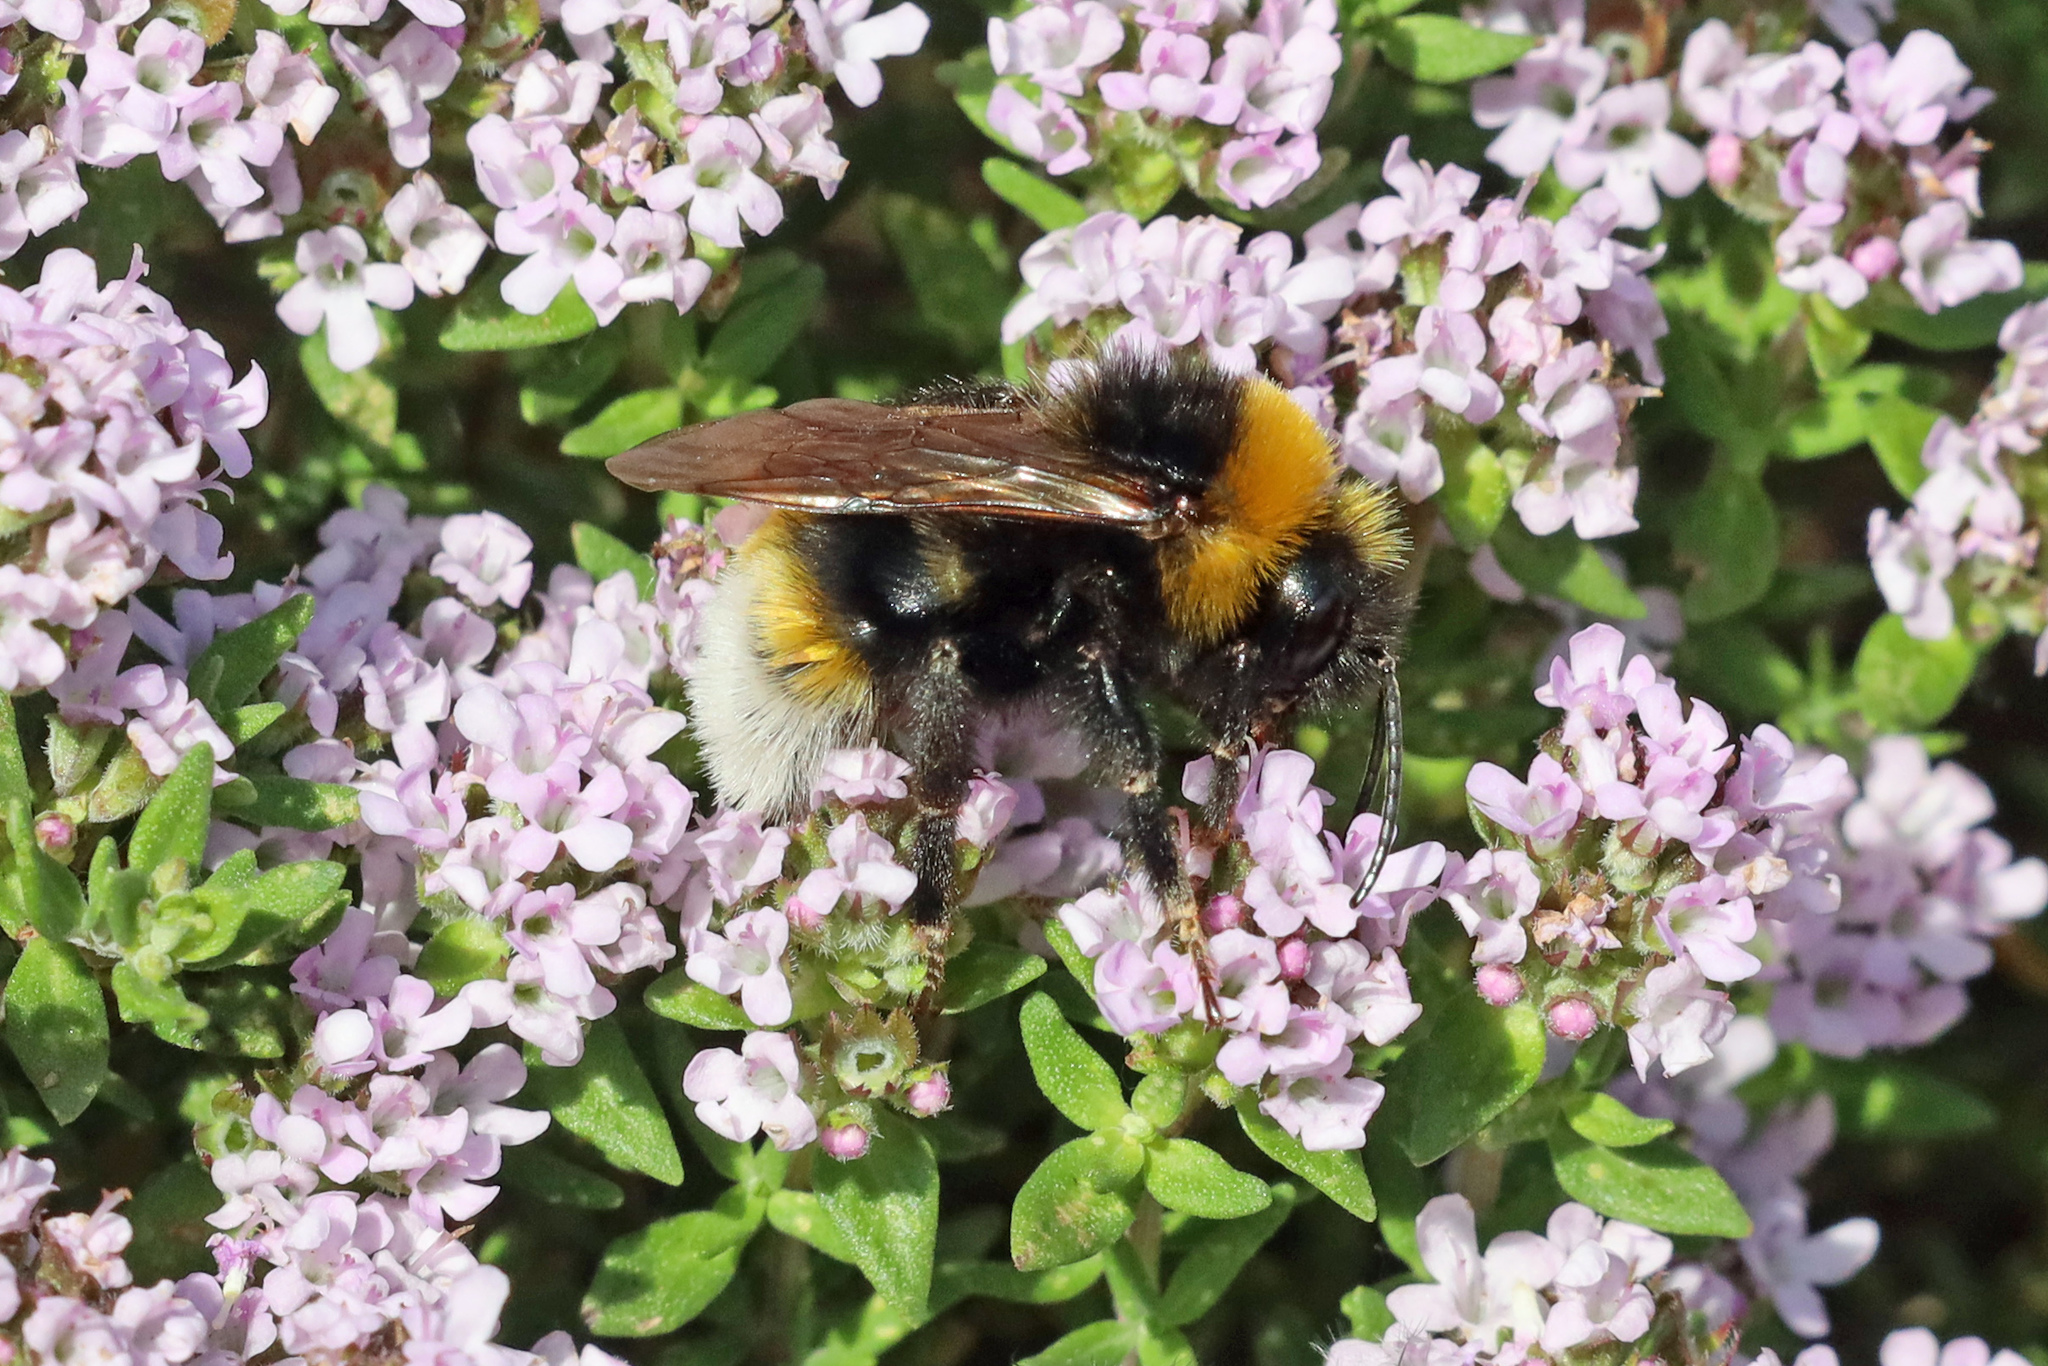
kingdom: Animalia
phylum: Arthropoda
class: Insecta
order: Hymenoptera
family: Apidae
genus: Bombus
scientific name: Bombus vestalis
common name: Vestal cuckoo bee
